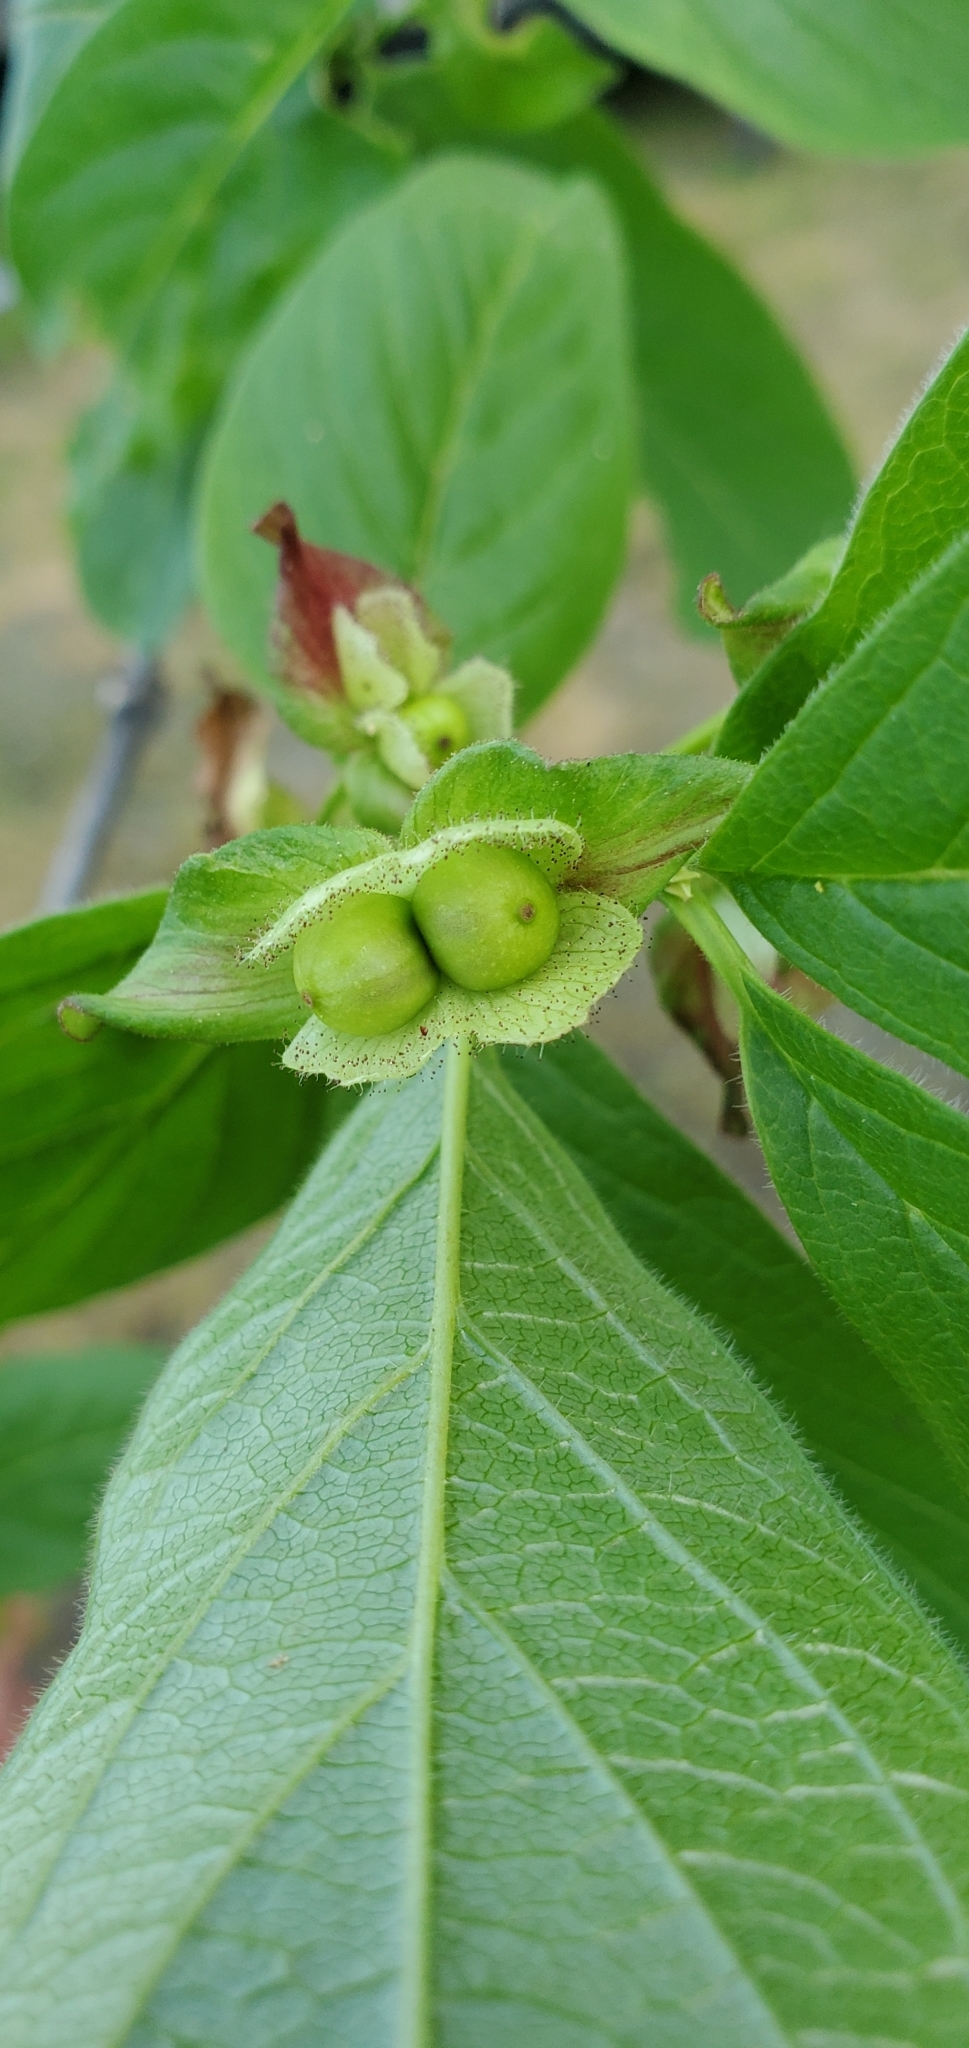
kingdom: Plantae
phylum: Tracheophyta
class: Magnoliopsida
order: Dipsacales
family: Caprifoliaceae
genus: Lonicera
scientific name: Lonicera involucrata
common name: Californian honeysuckle
